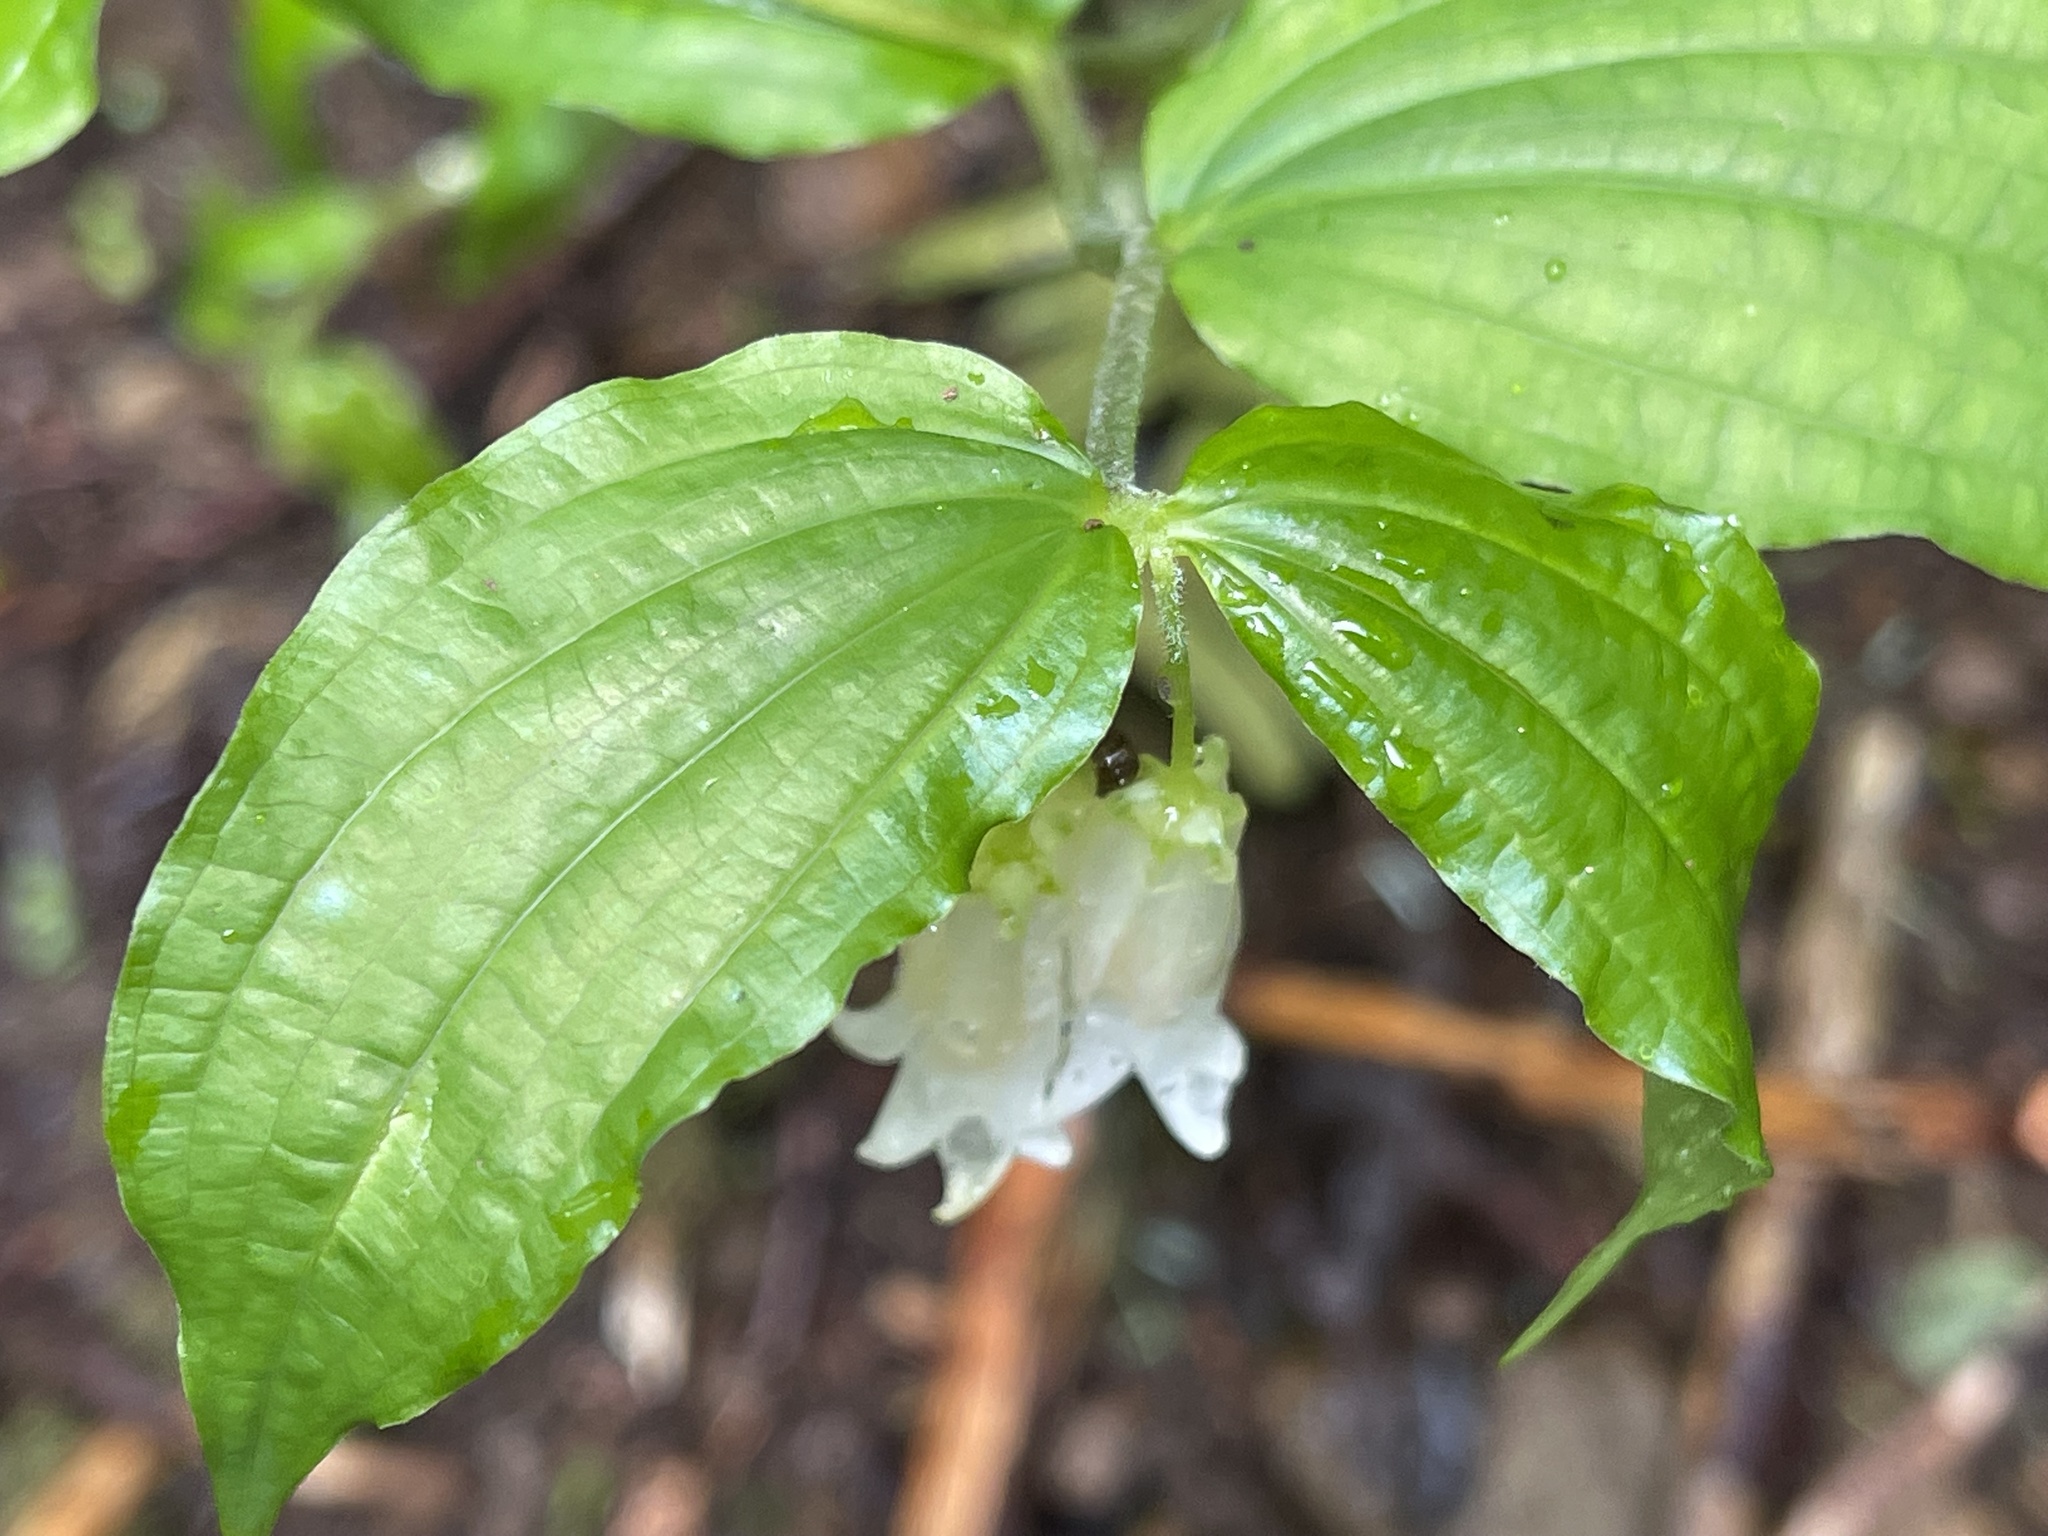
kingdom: Plantae
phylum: Tracheophyta
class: Liliopsida
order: Liliales
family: Liliaceae
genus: Prosartes
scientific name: Prosartes smithii
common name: Fairy-lantern
